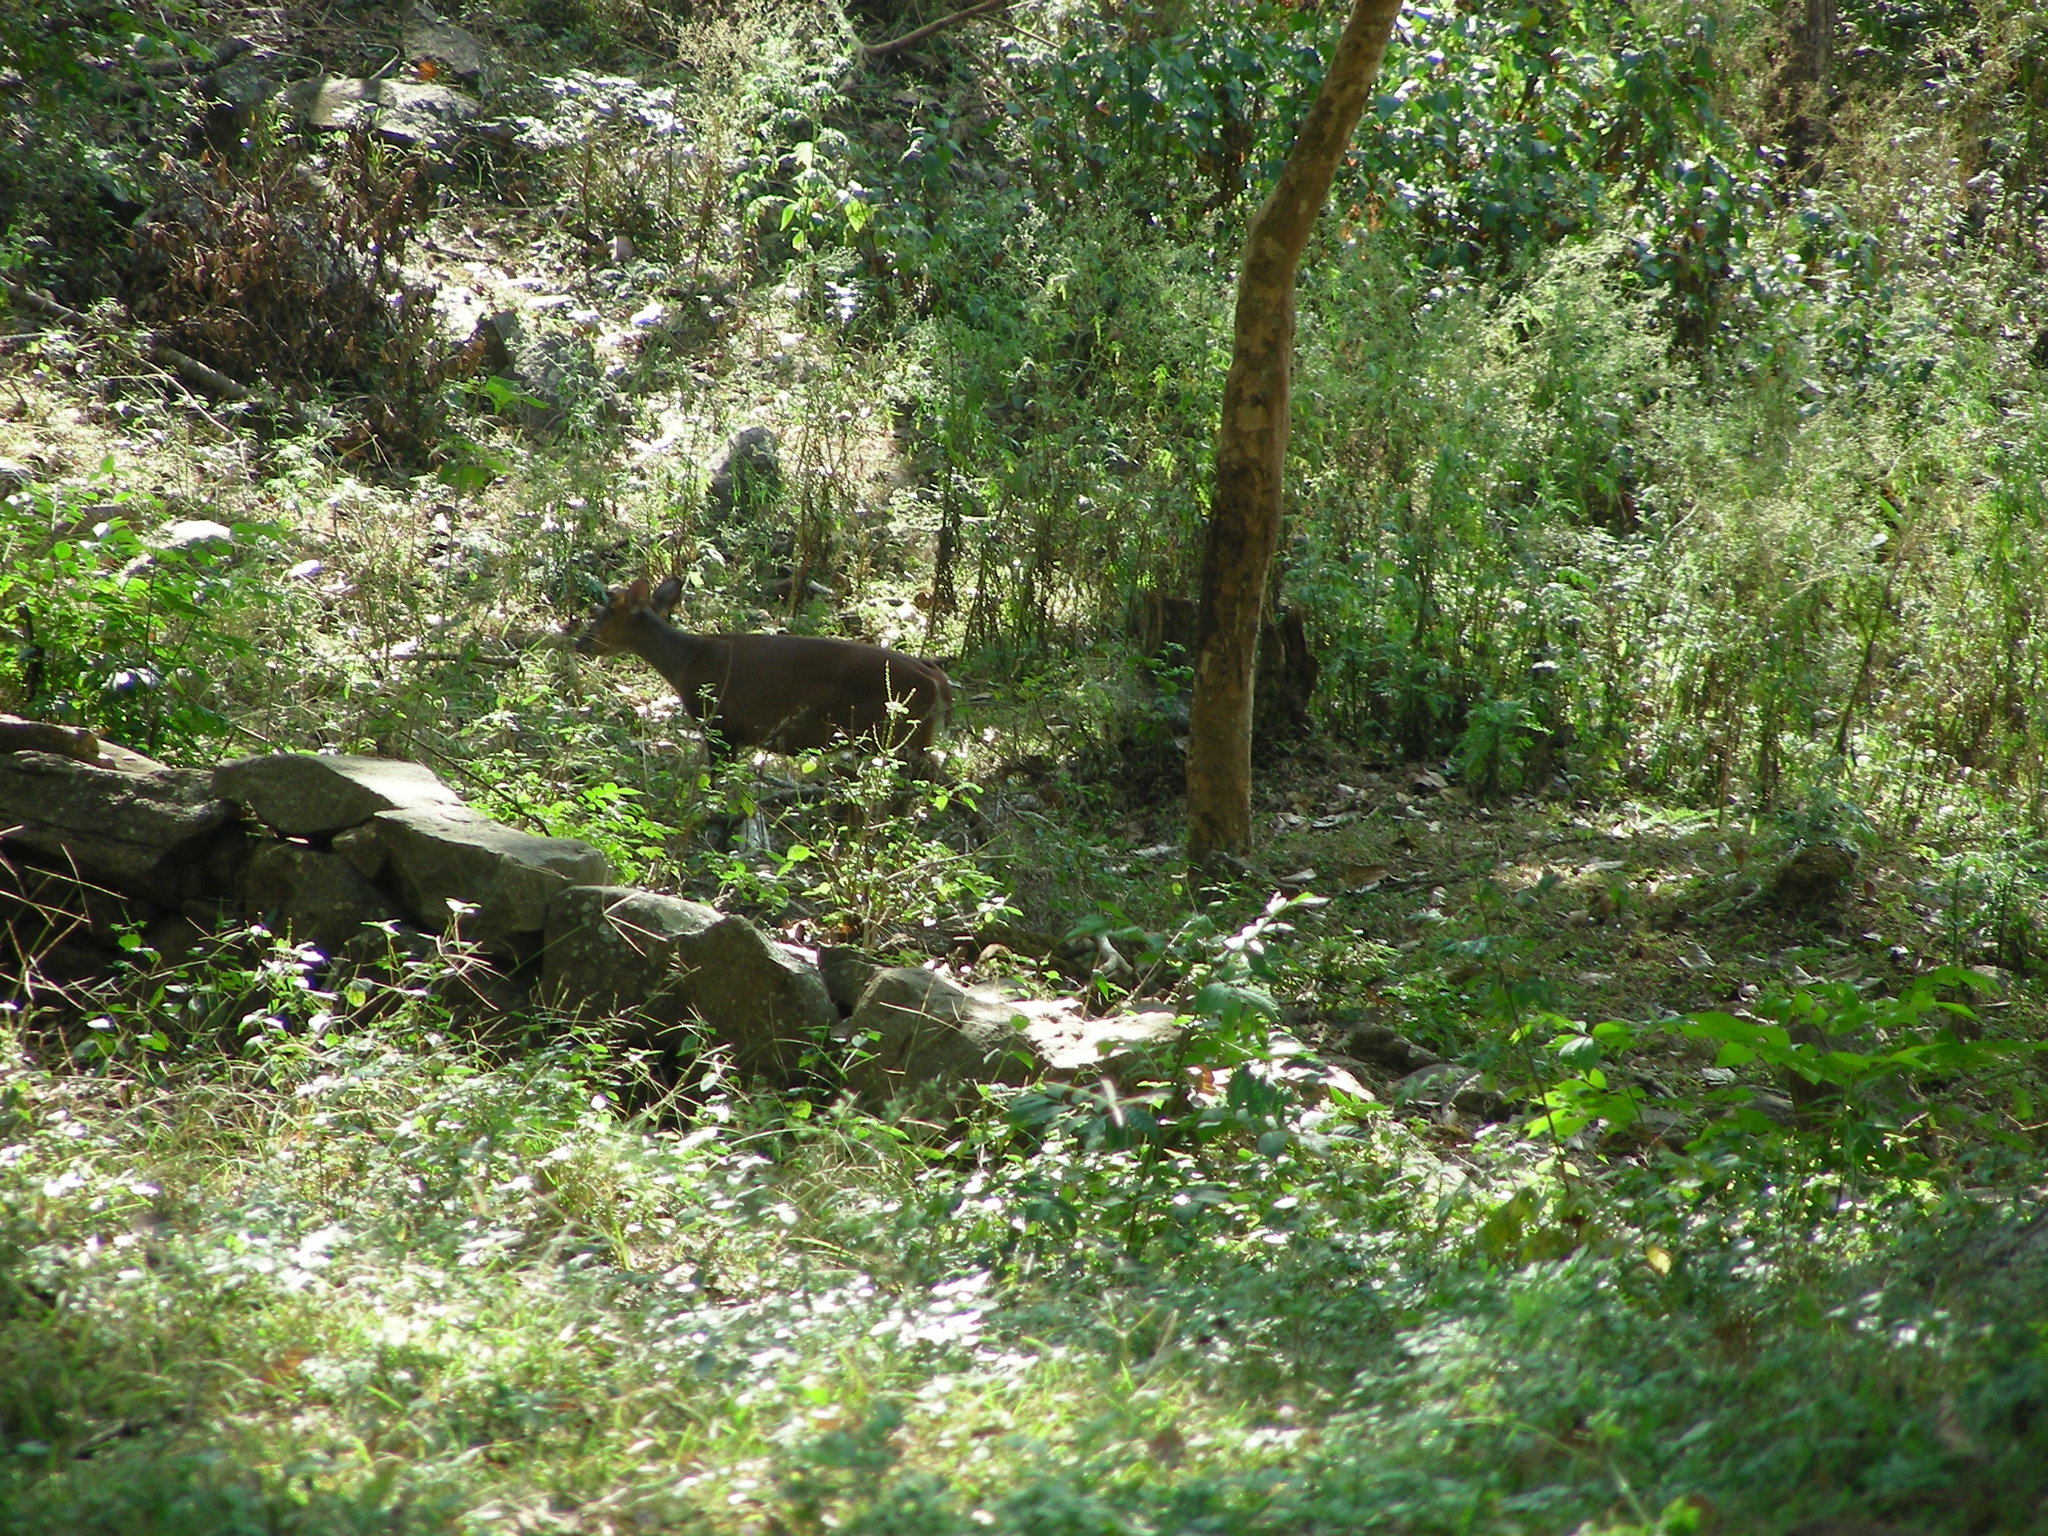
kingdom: Animalia
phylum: Chordata
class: Mammalia
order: Artiodactyla
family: Cervidae
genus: Rusa
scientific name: Rusa unicolor
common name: Sambar
